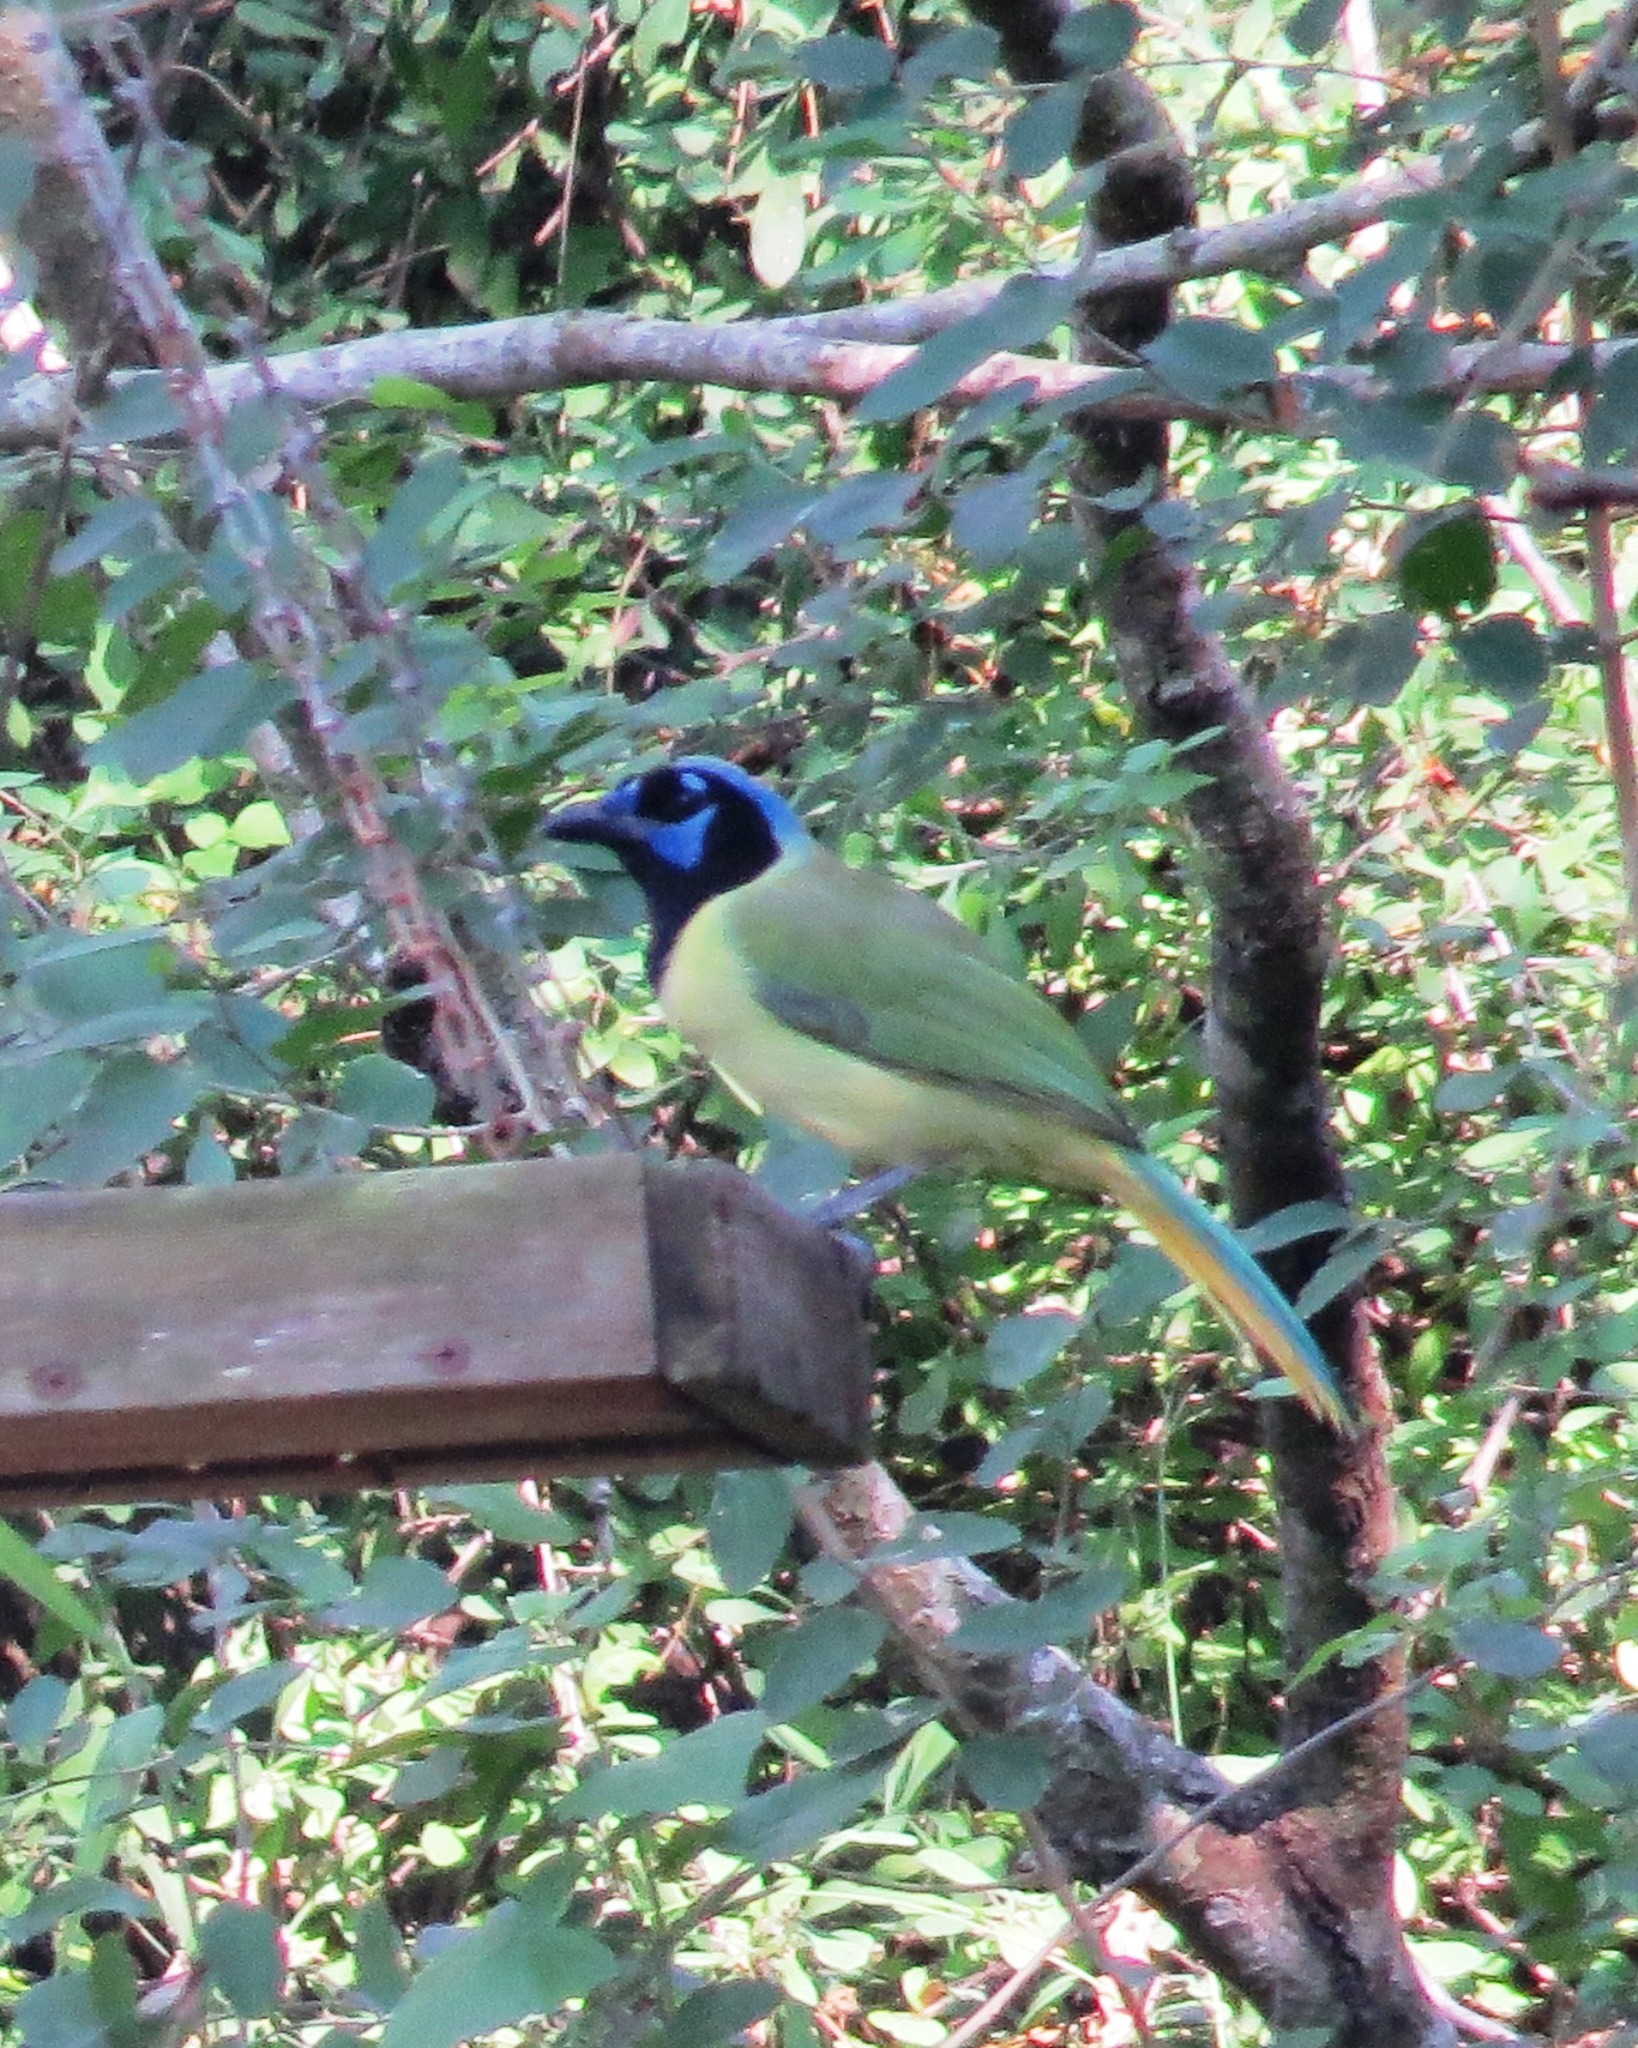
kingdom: Animalia
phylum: Chordata
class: Aves
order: Passeriformes
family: Corvidae
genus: Cyanocorax
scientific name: Cyanocorax yncas
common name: Green jay
